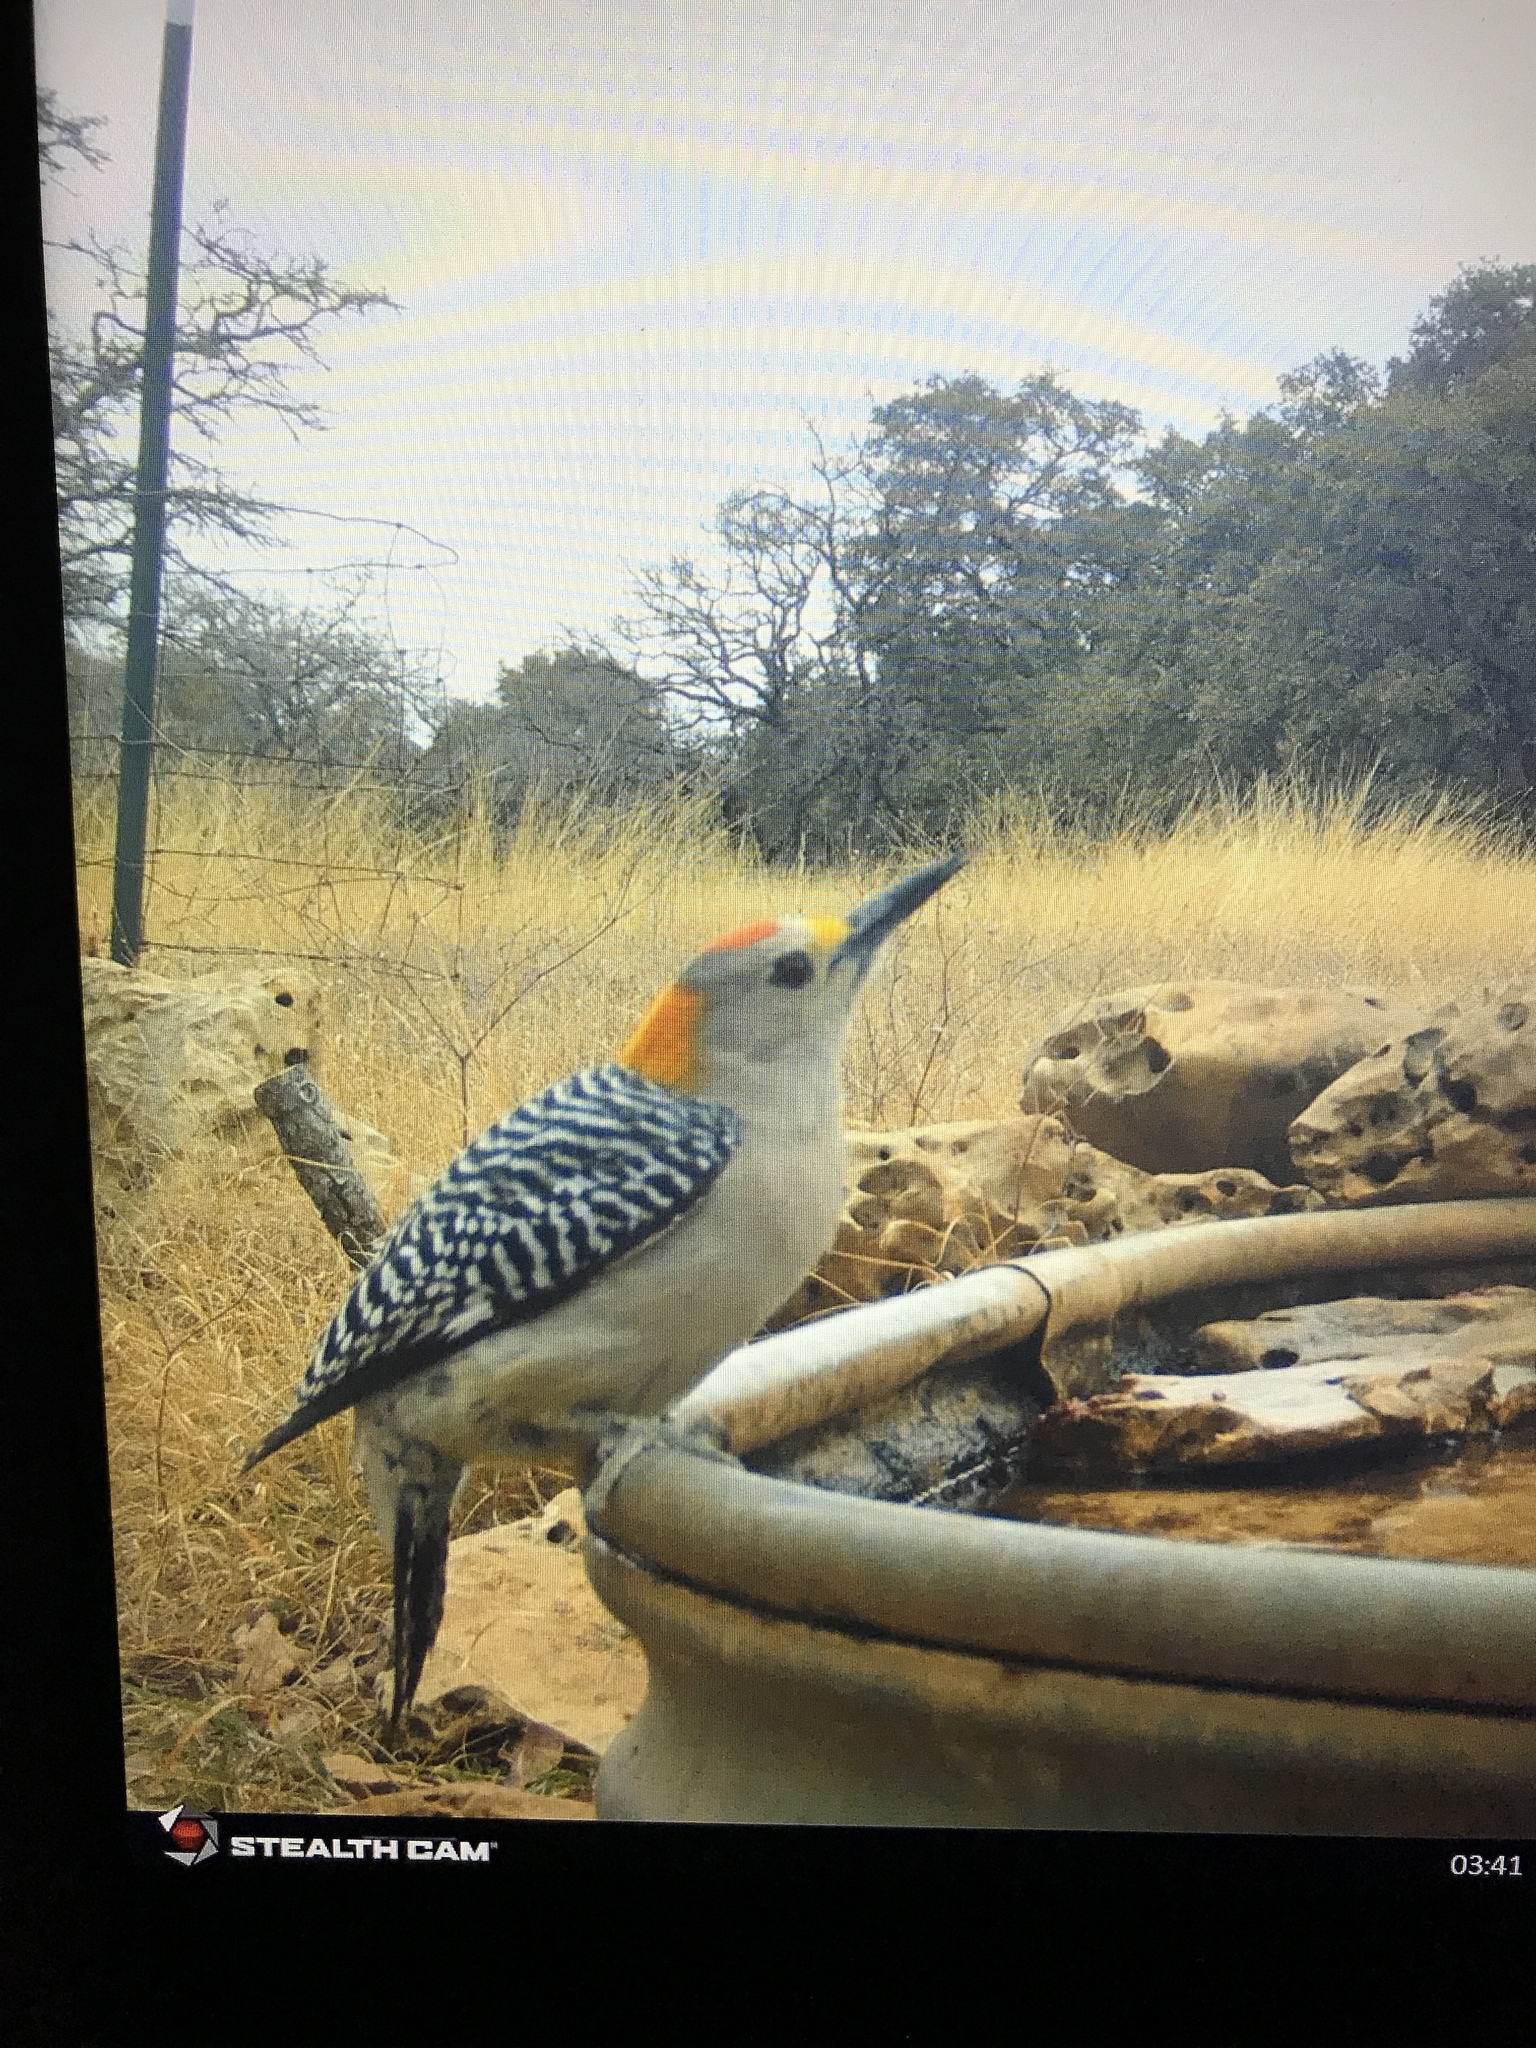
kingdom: Animalia
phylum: Chordata
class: Aves
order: Piciformes
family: Picidae
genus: Melanerpes
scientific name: Melanerpes aurifrons
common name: Golden-fronted woodpecker
